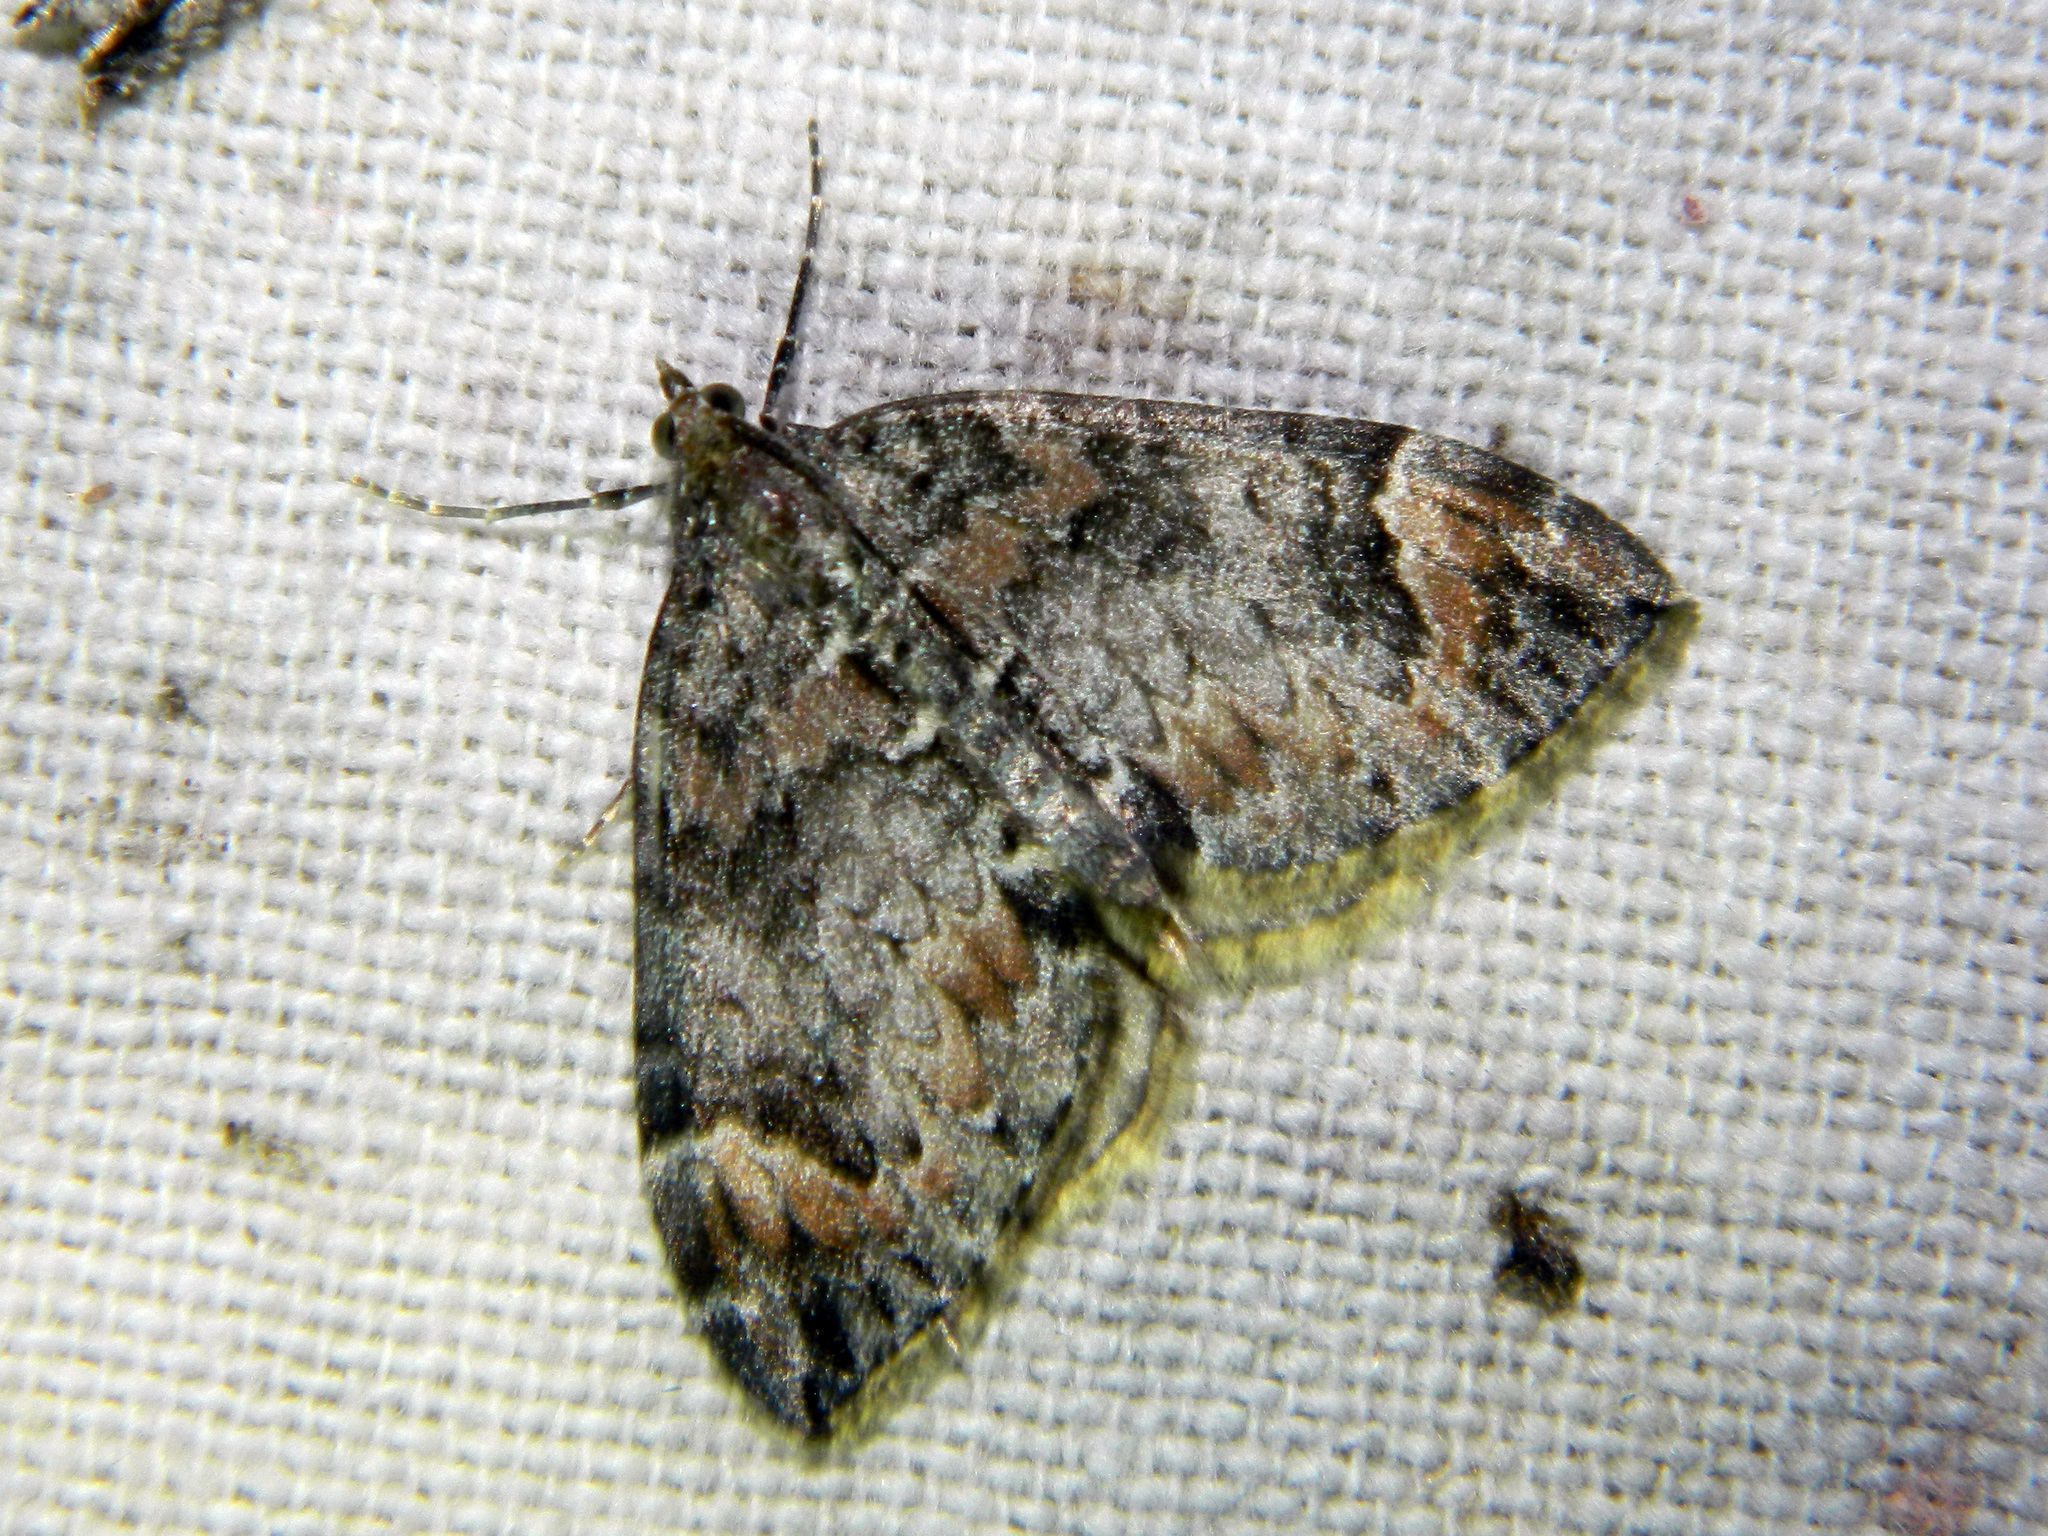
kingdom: Animalia
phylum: Arthropoda
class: Insecta
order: Lepidoptera
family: Geometridae
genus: Dysstroma
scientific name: Dysstroma citrata
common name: Dark marbled carpet
